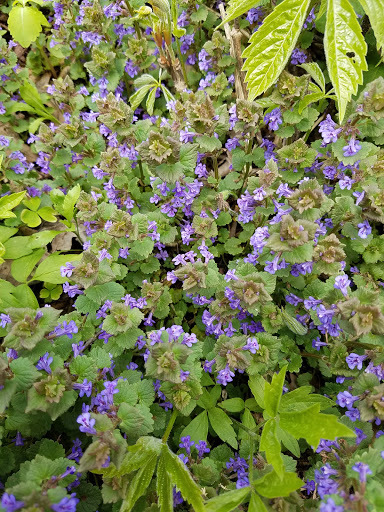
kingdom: Plantae
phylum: Tracheophyta
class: Magnoliopsida
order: Lamiales
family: Lamiaceae
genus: Glechoma
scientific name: Glechoma hederacea
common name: Ground ivy
